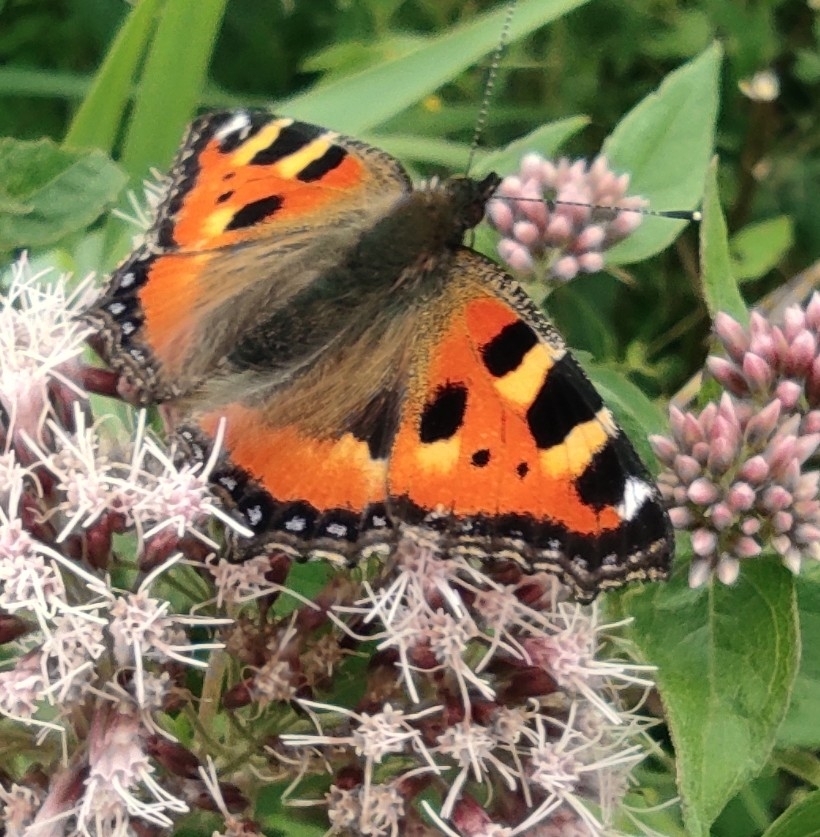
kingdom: Animalia
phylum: Arthropoda
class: Insecta
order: Lepidoptera
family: Nymphalidae
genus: Aglais
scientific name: Aglais urticae
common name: Small tortoiseshell
